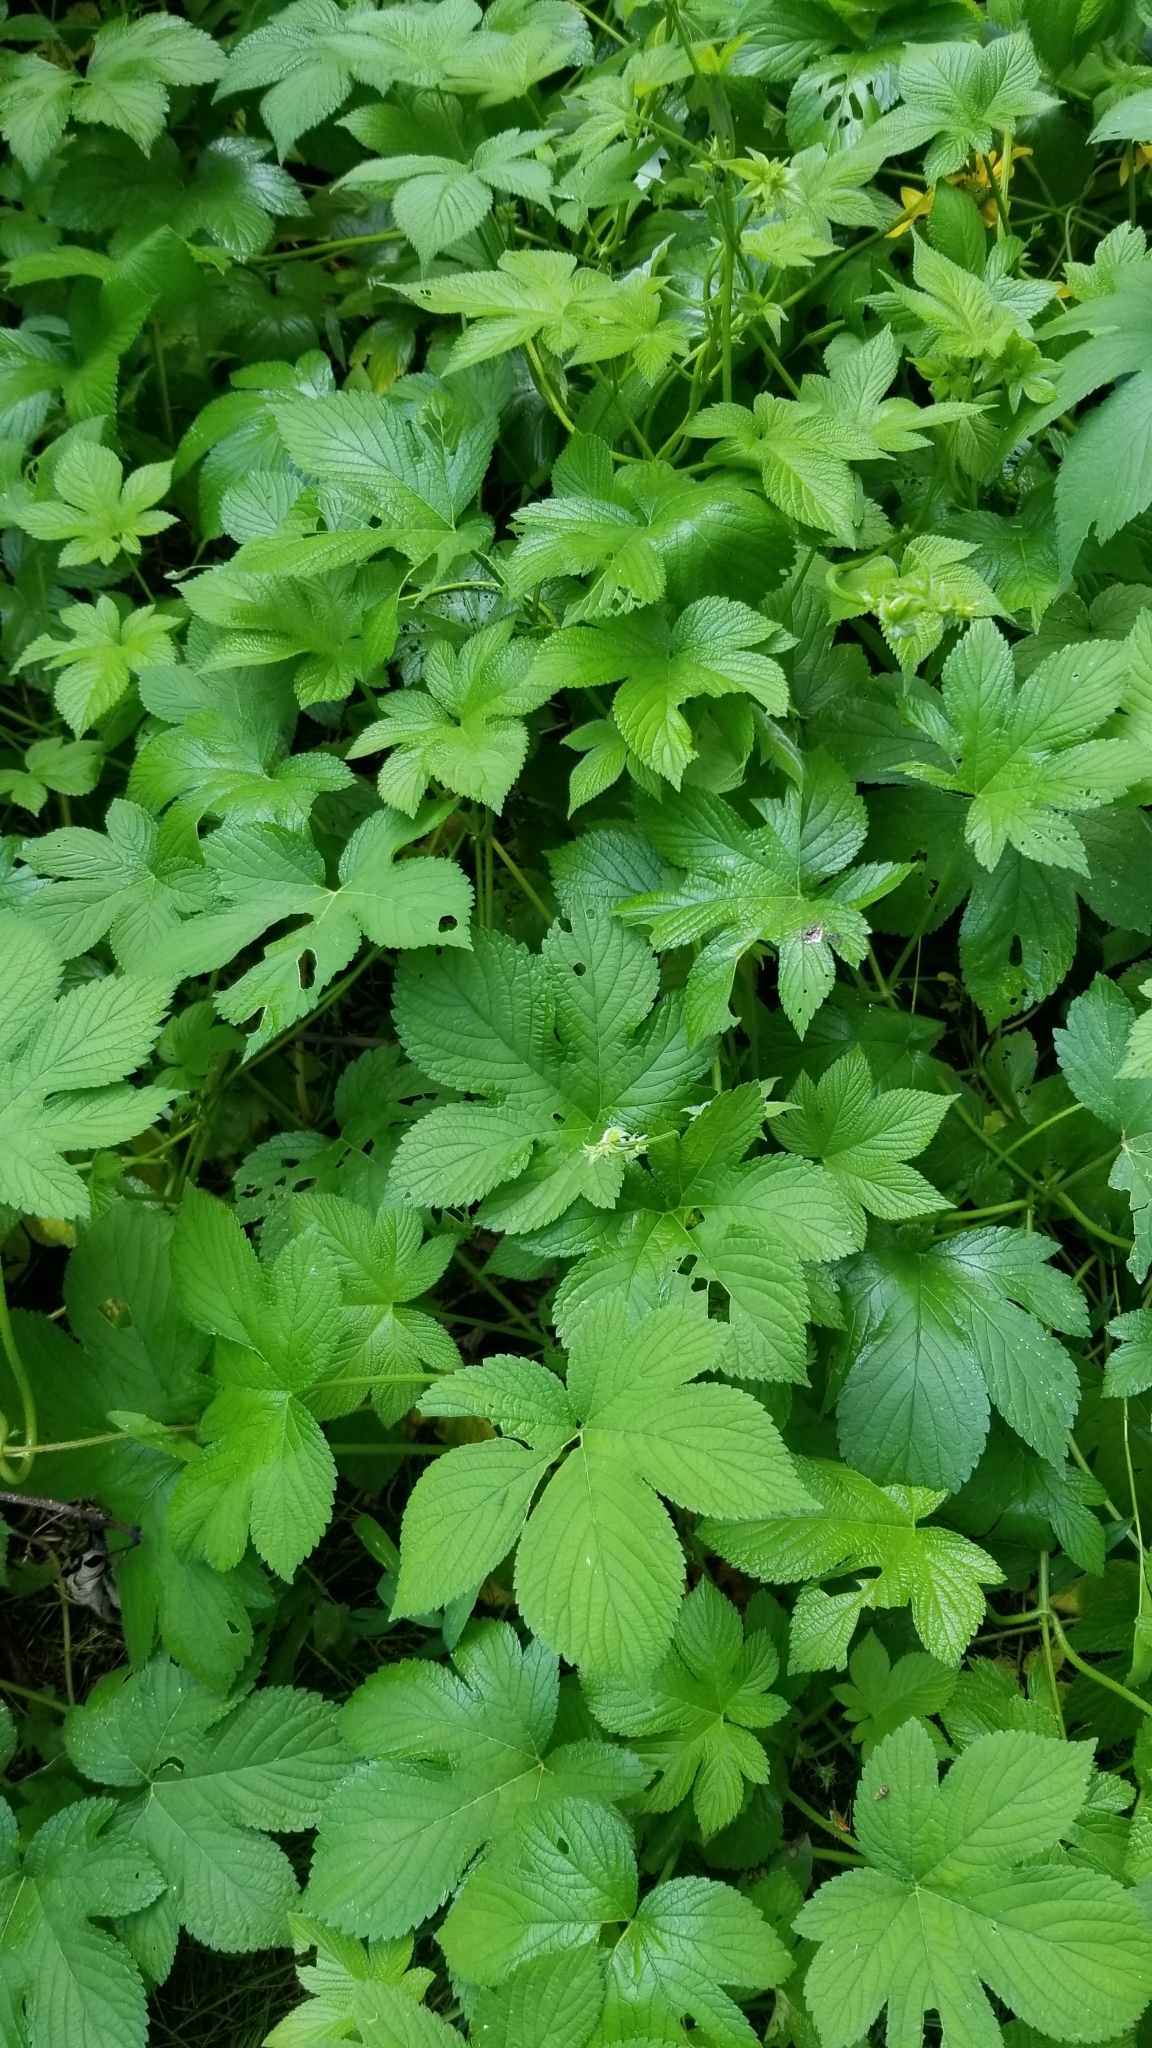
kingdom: Plantae
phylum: Tracheophyta
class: Magnoliopsida
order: Rosales
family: Cannabaceae
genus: Humulus
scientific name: Humulus scandens
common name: Japanese hop
